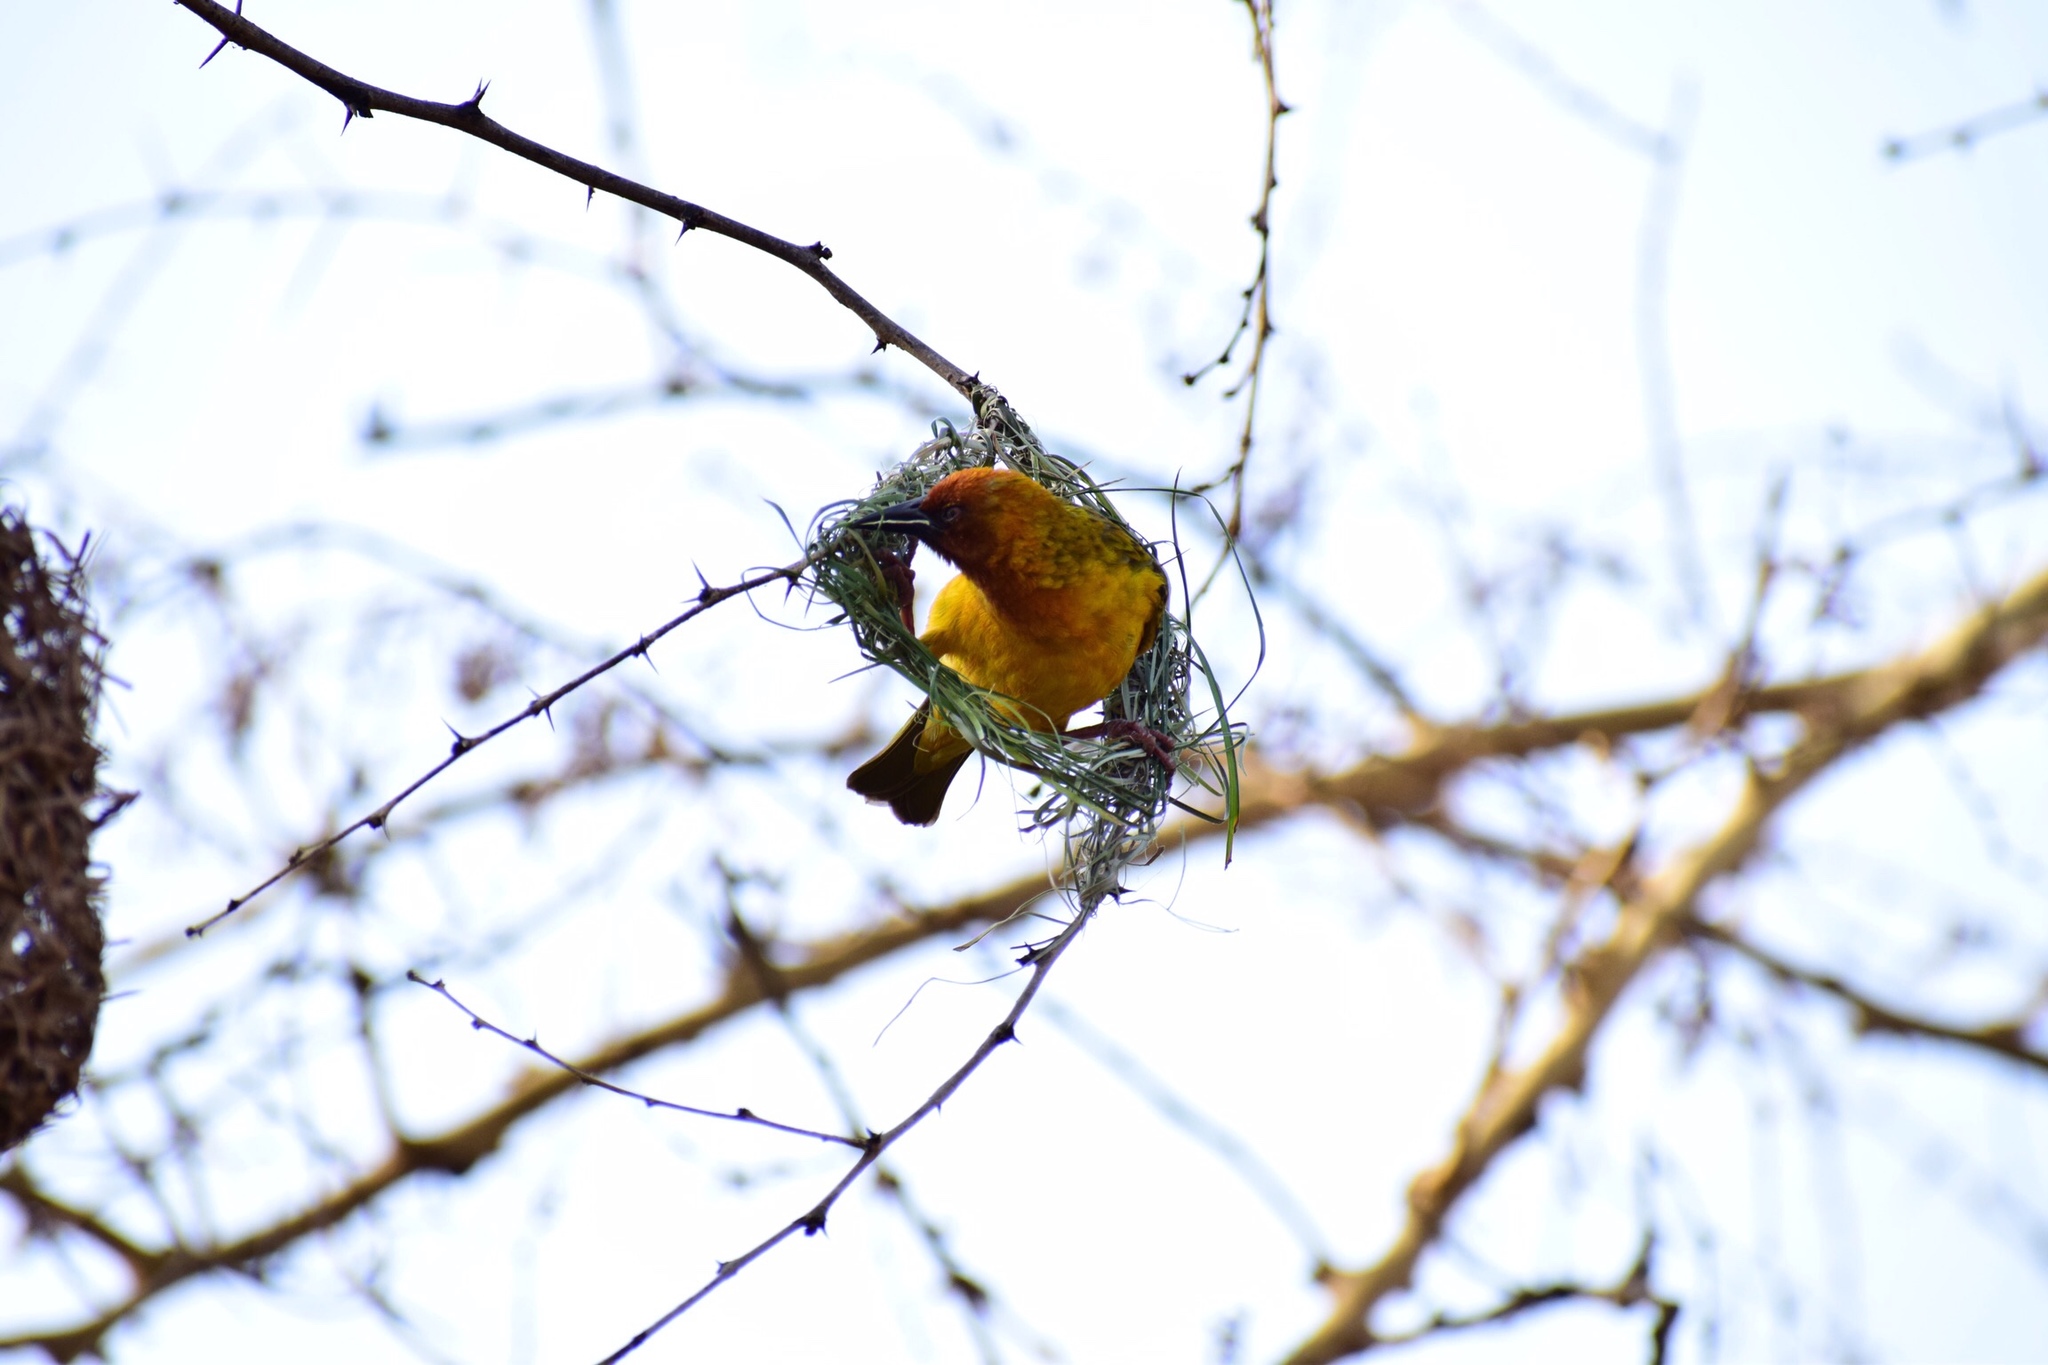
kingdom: Animalia
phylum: Chordata
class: Aves
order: Passeriformes
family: Ploceidae
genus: Ploceus
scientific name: Ploceus capensis
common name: Cape weaver
